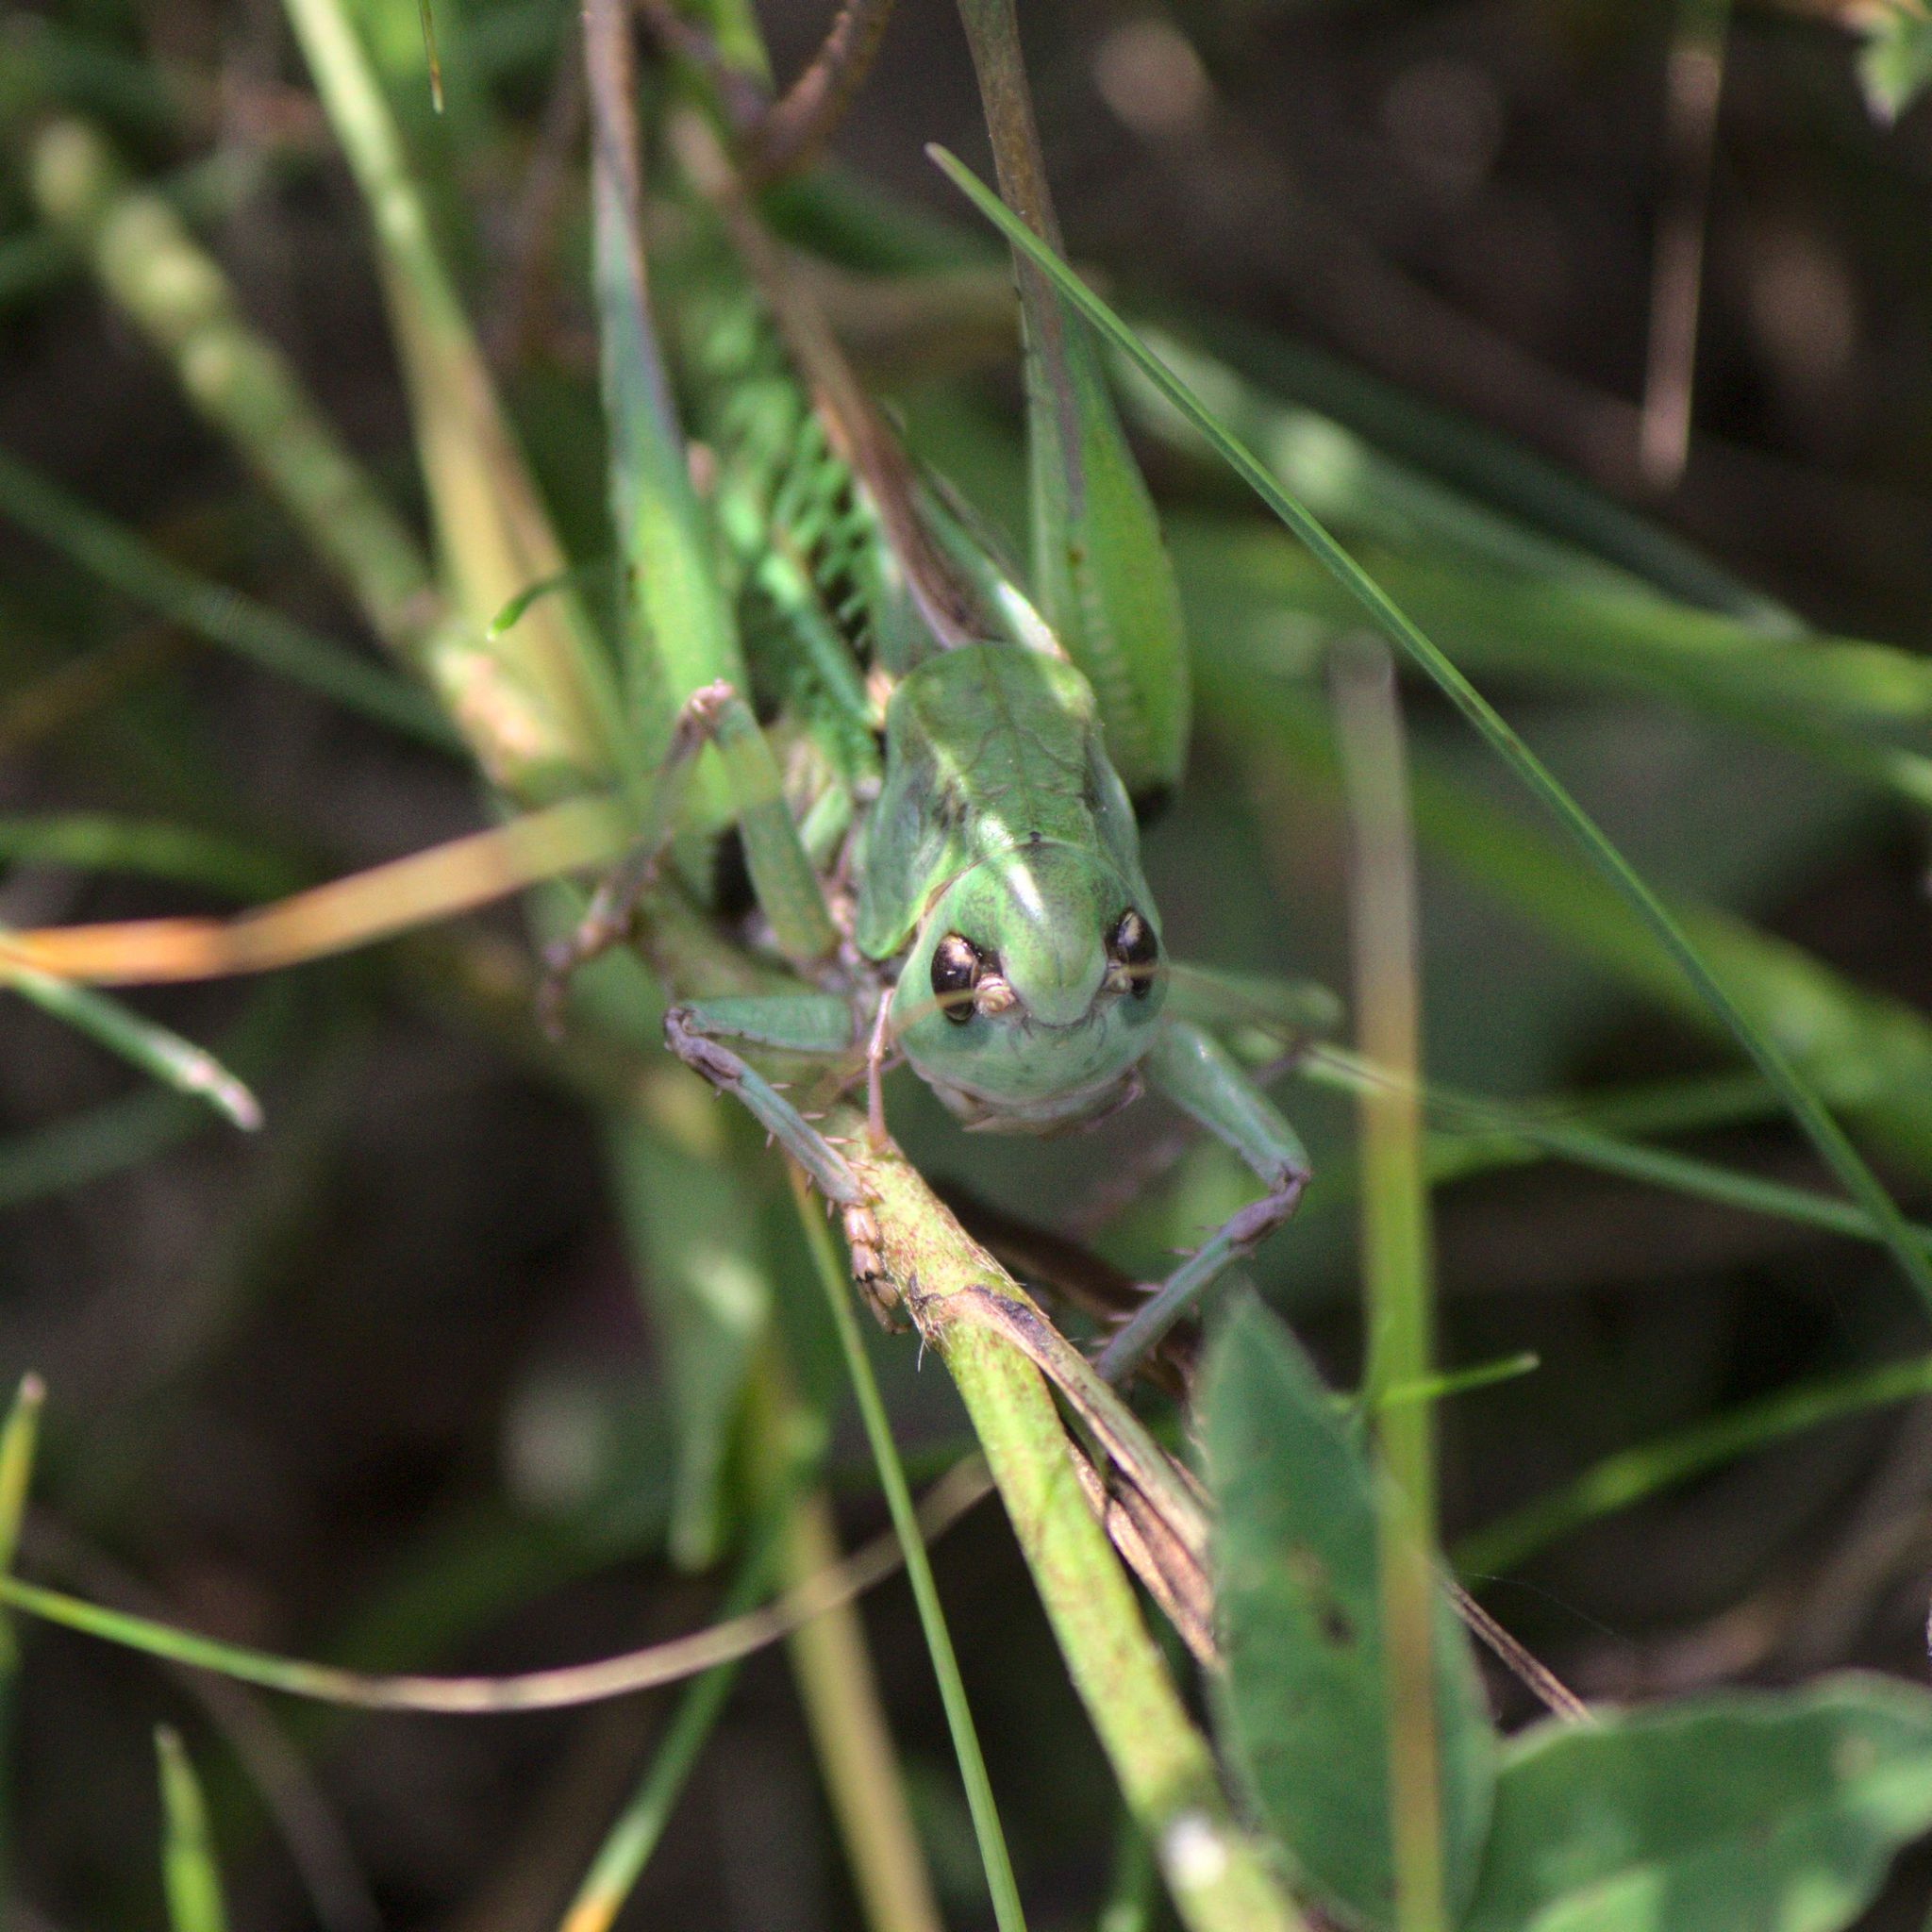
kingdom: Animalia
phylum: Arthropoda
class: Insecta
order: Orthoptera
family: Tettigoniidae
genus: Decticus
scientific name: Decticus verrucivorus
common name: Wart-biter
